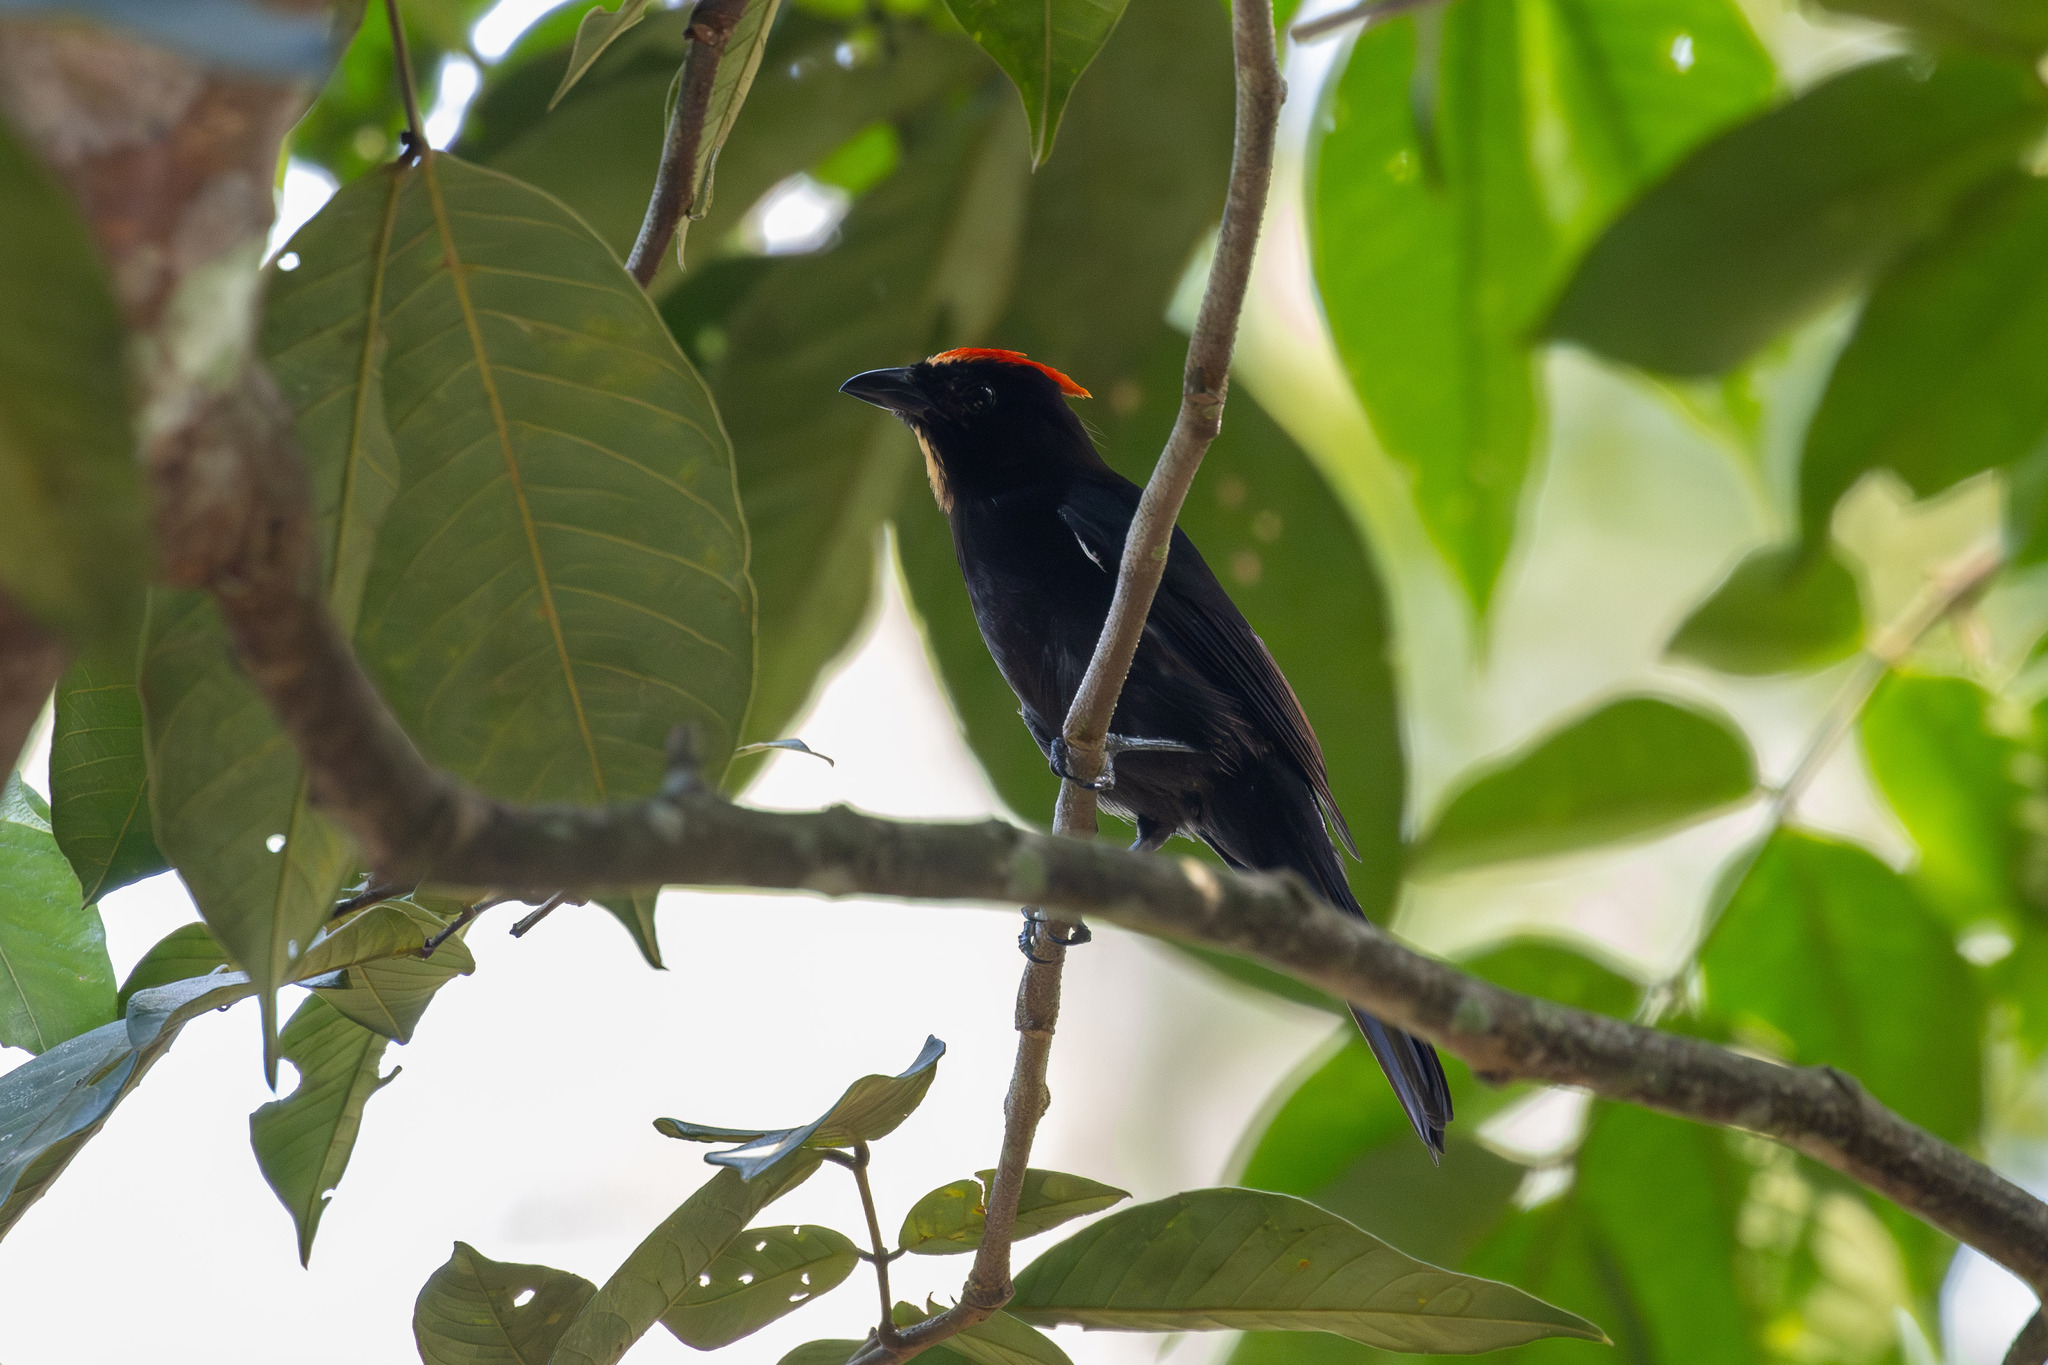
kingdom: Animalia
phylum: Chordata
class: Aves
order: Passeriformes
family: Thraupidae
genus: Loriotus
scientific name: Loriotus cristatus
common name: Flame-crested tanager
